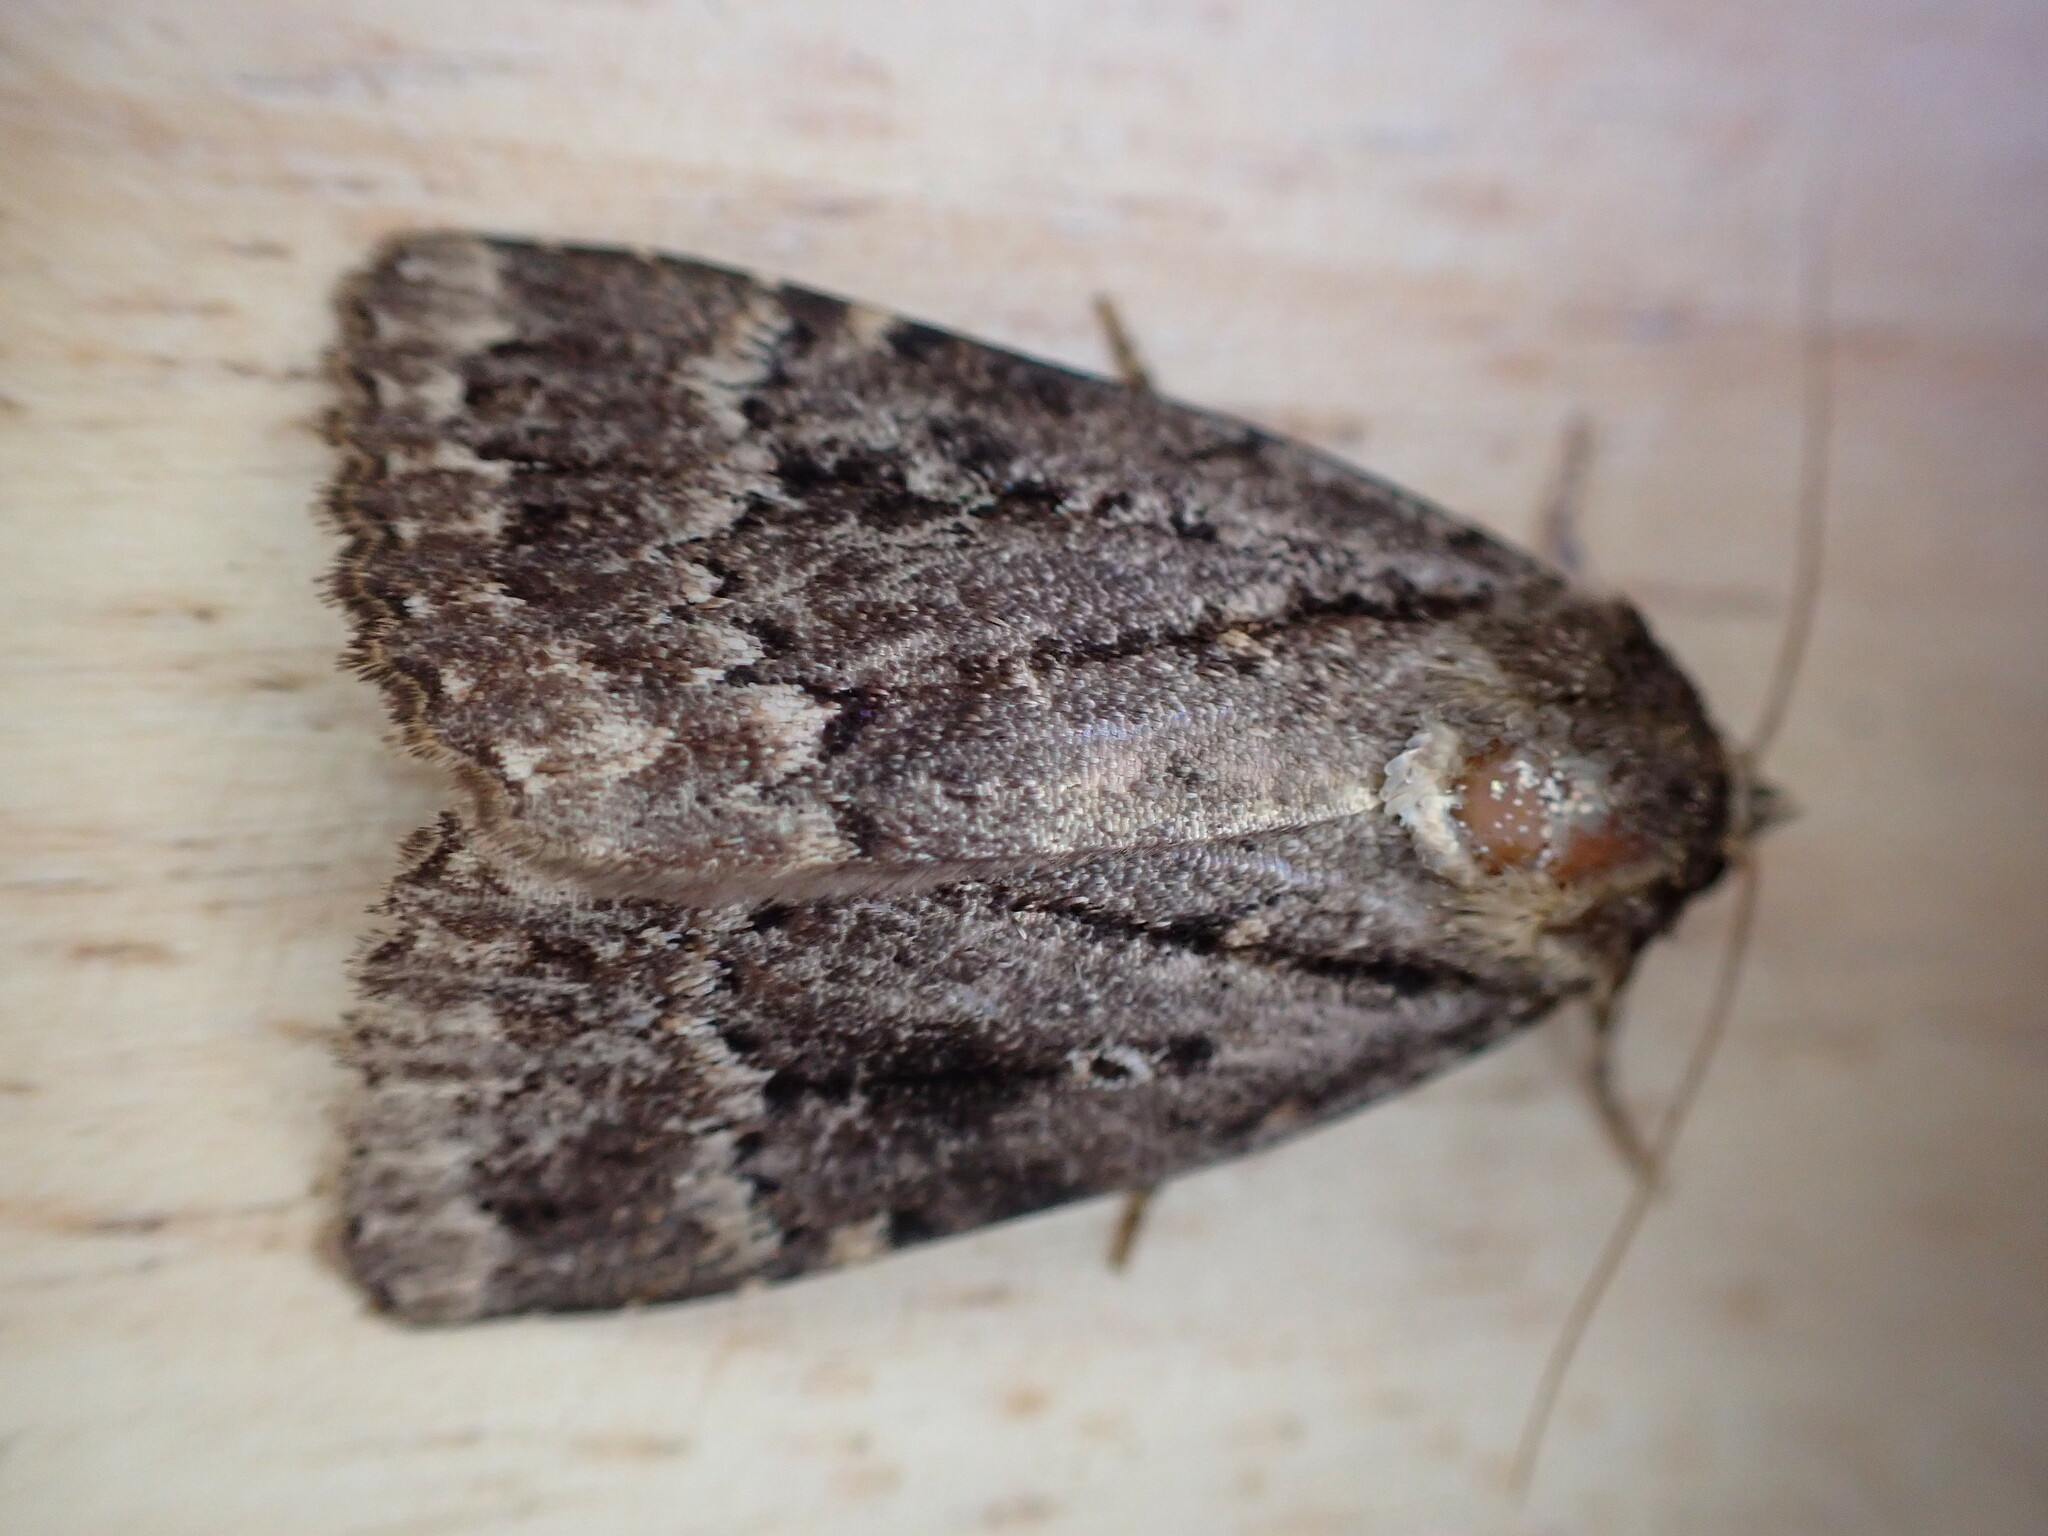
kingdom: Animalia
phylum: Arthropoda
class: Insecta
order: Lepidoptera
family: Noctuidae
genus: Amphipyra
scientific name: Amphipyra
